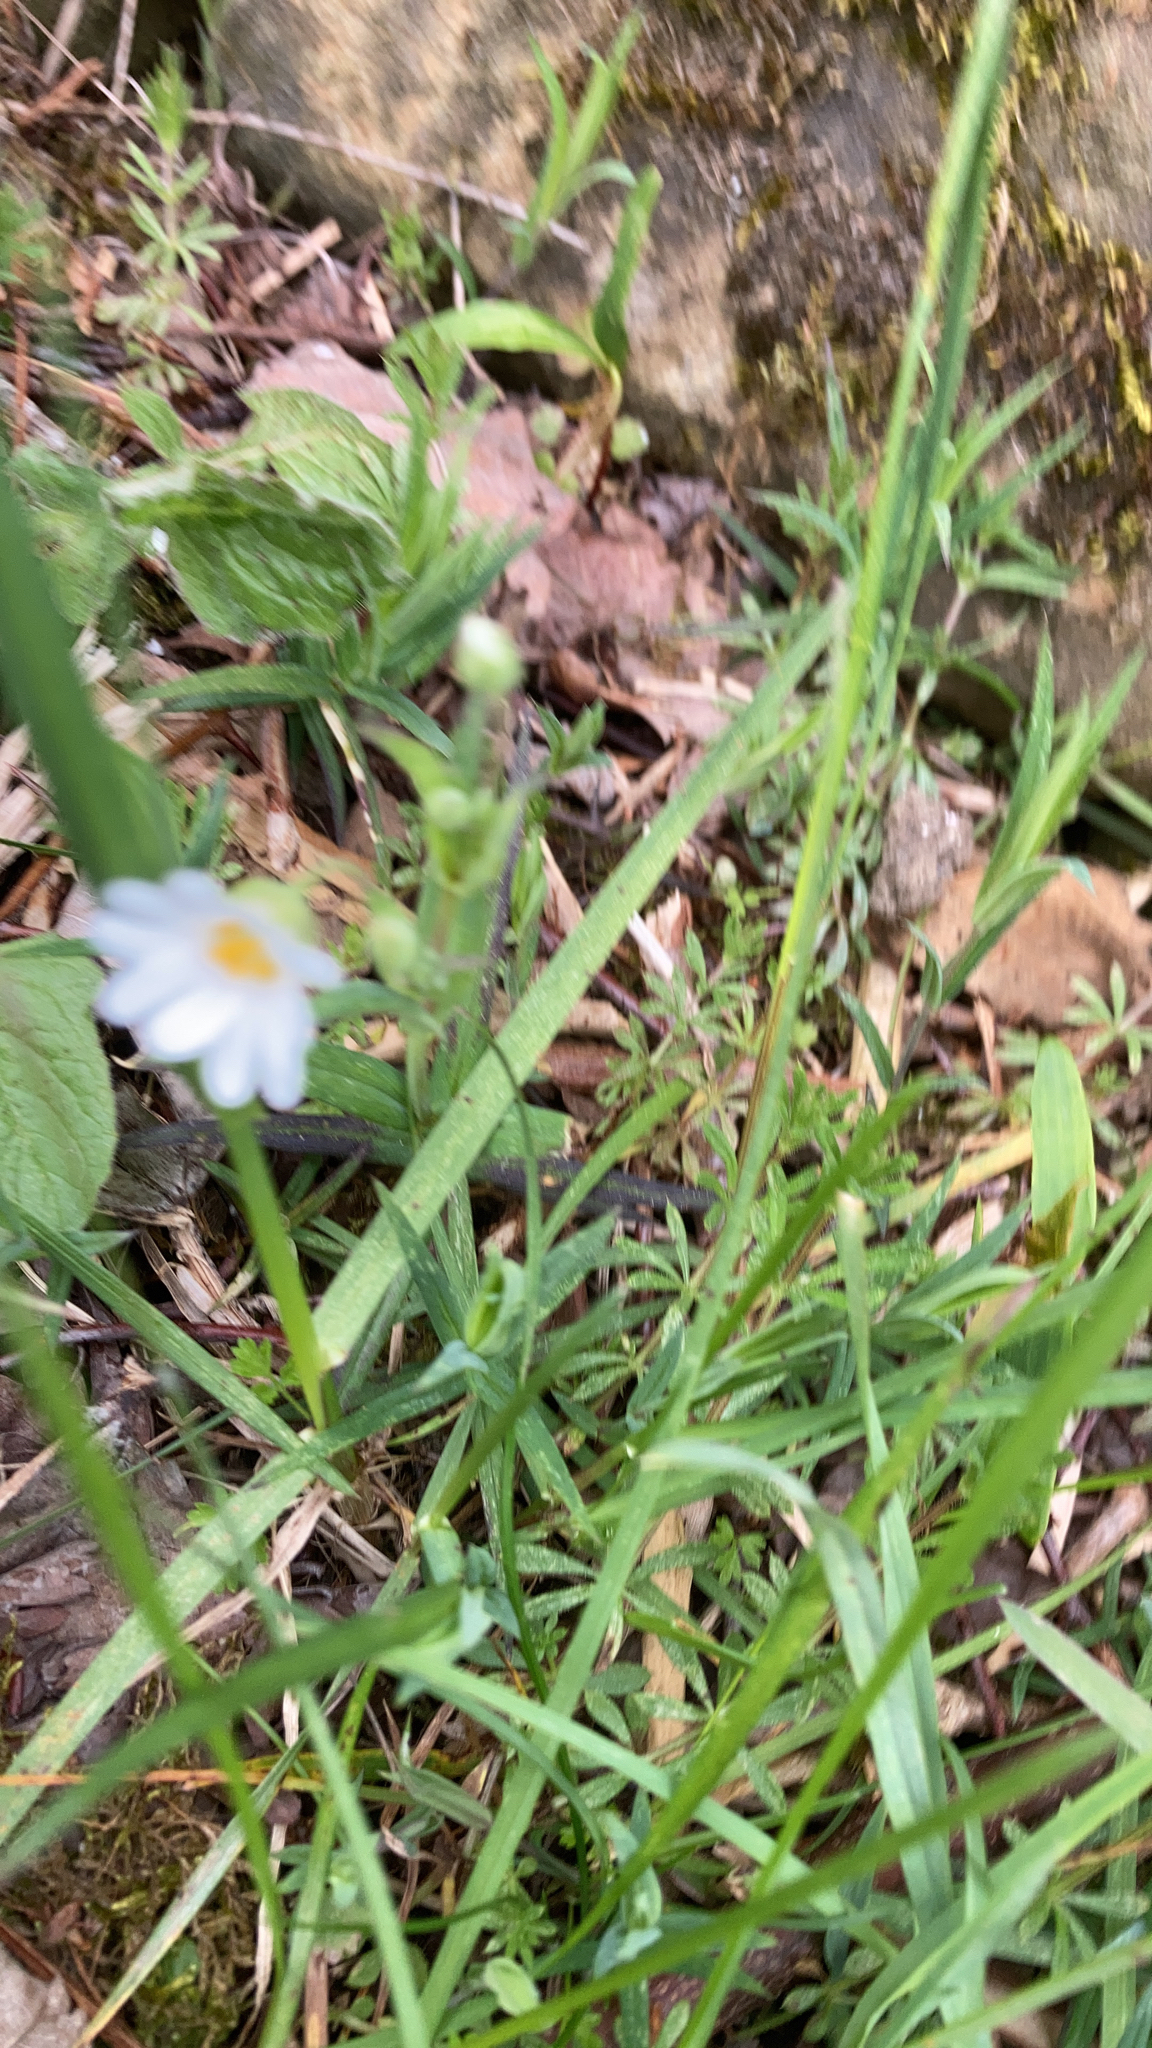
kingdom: Plantae
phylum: Tracheophyta
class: Magnoliopsida
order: Caryophyllales
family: Caryophyllaceae
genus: Rabelera
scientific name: Rabelera holostea
